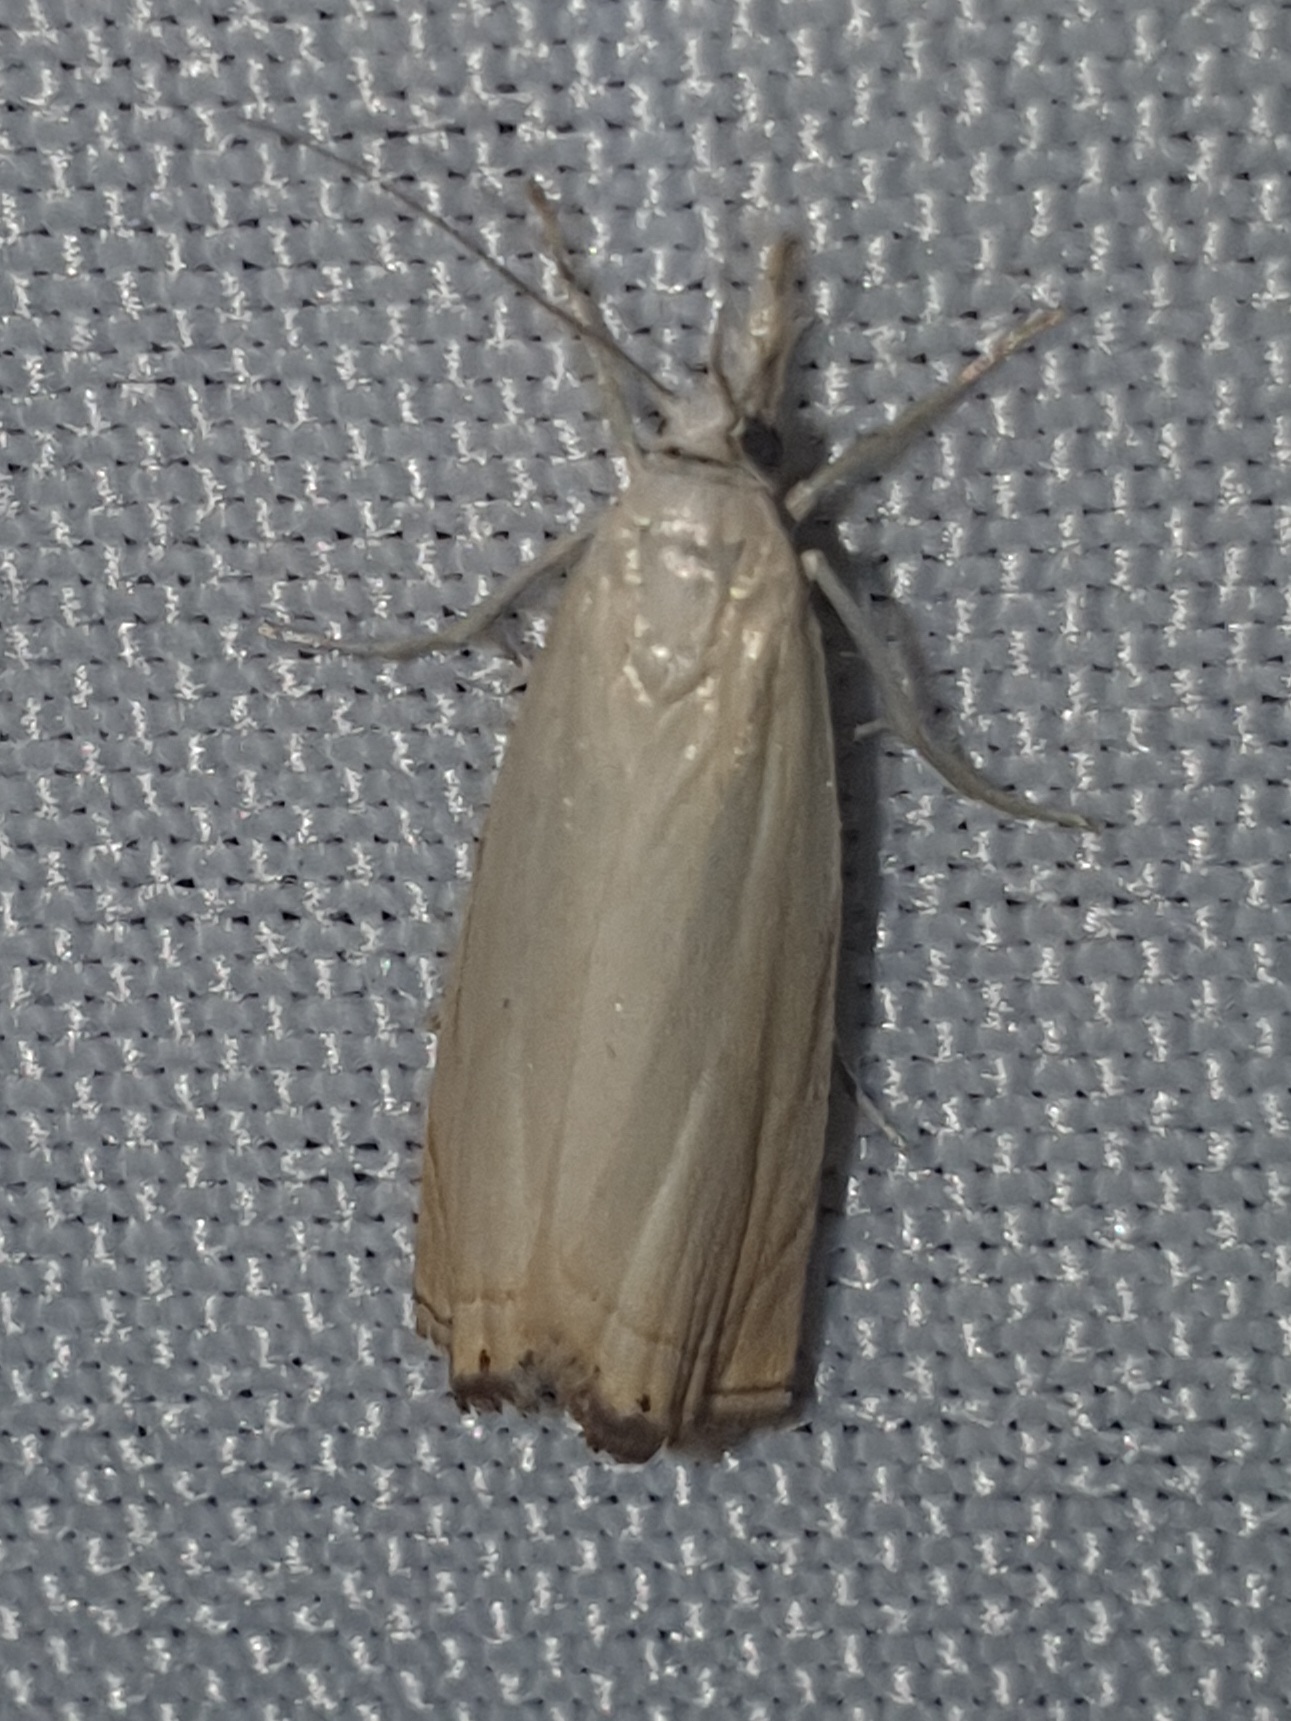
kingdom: Animalia
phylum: Arthropoda
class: Insecta
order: Lepidoptera
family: Crambidae
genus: Chrysoteuchia
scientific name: Chrysoteuchia culmella
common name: Garden grass-veneer
